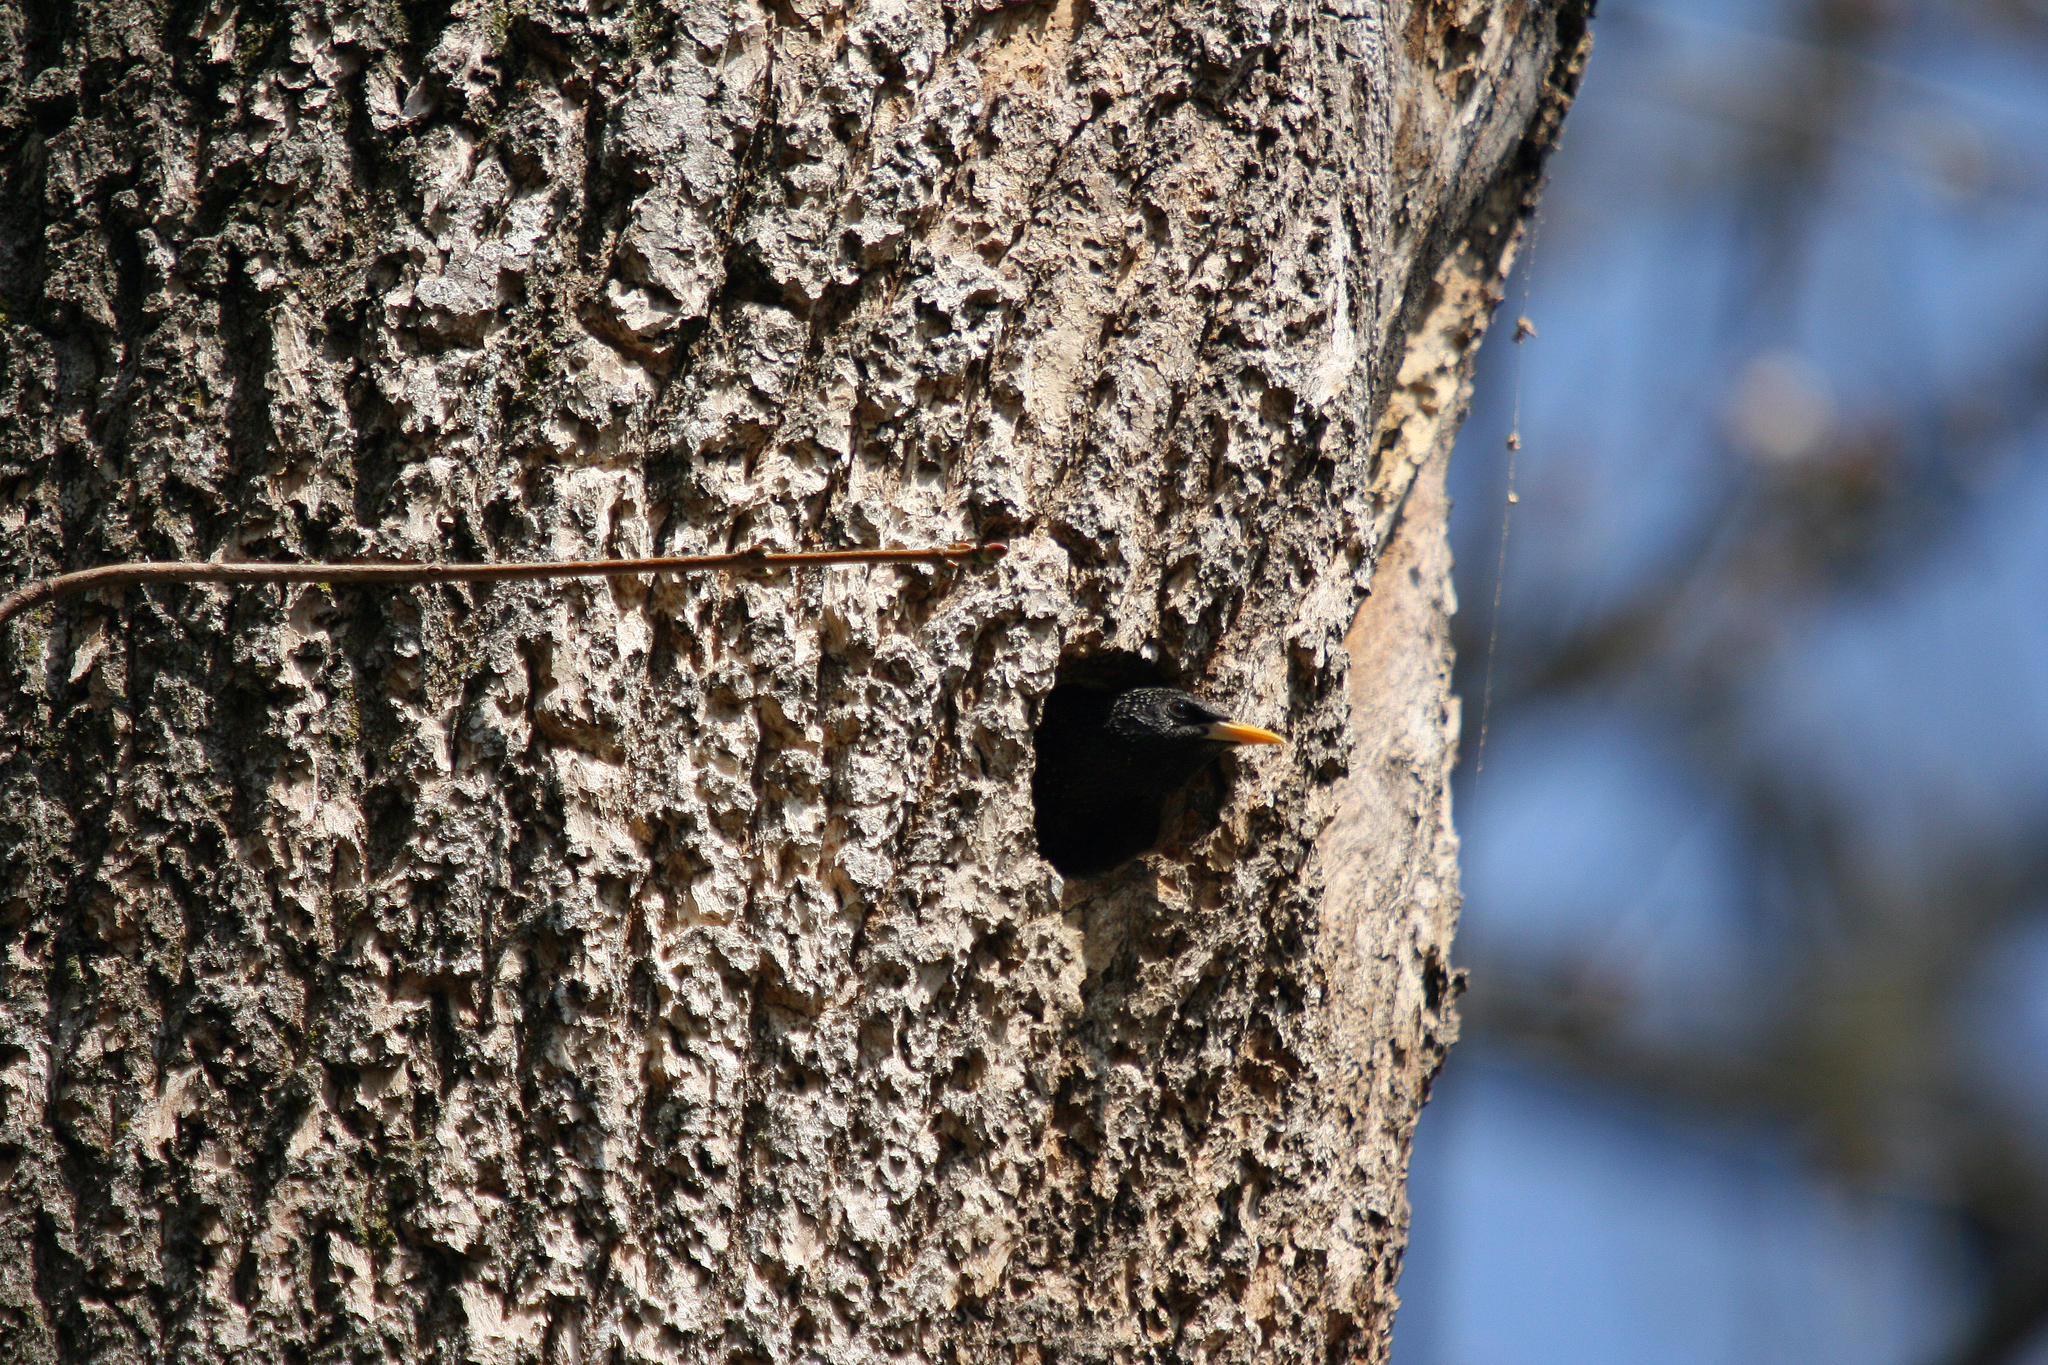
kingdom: Animalia
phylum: Chordata
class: Aves
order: Passeriformes
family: Sturnidae
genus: Sturnus
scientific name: Sturnus vulgaris
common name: Common starling
